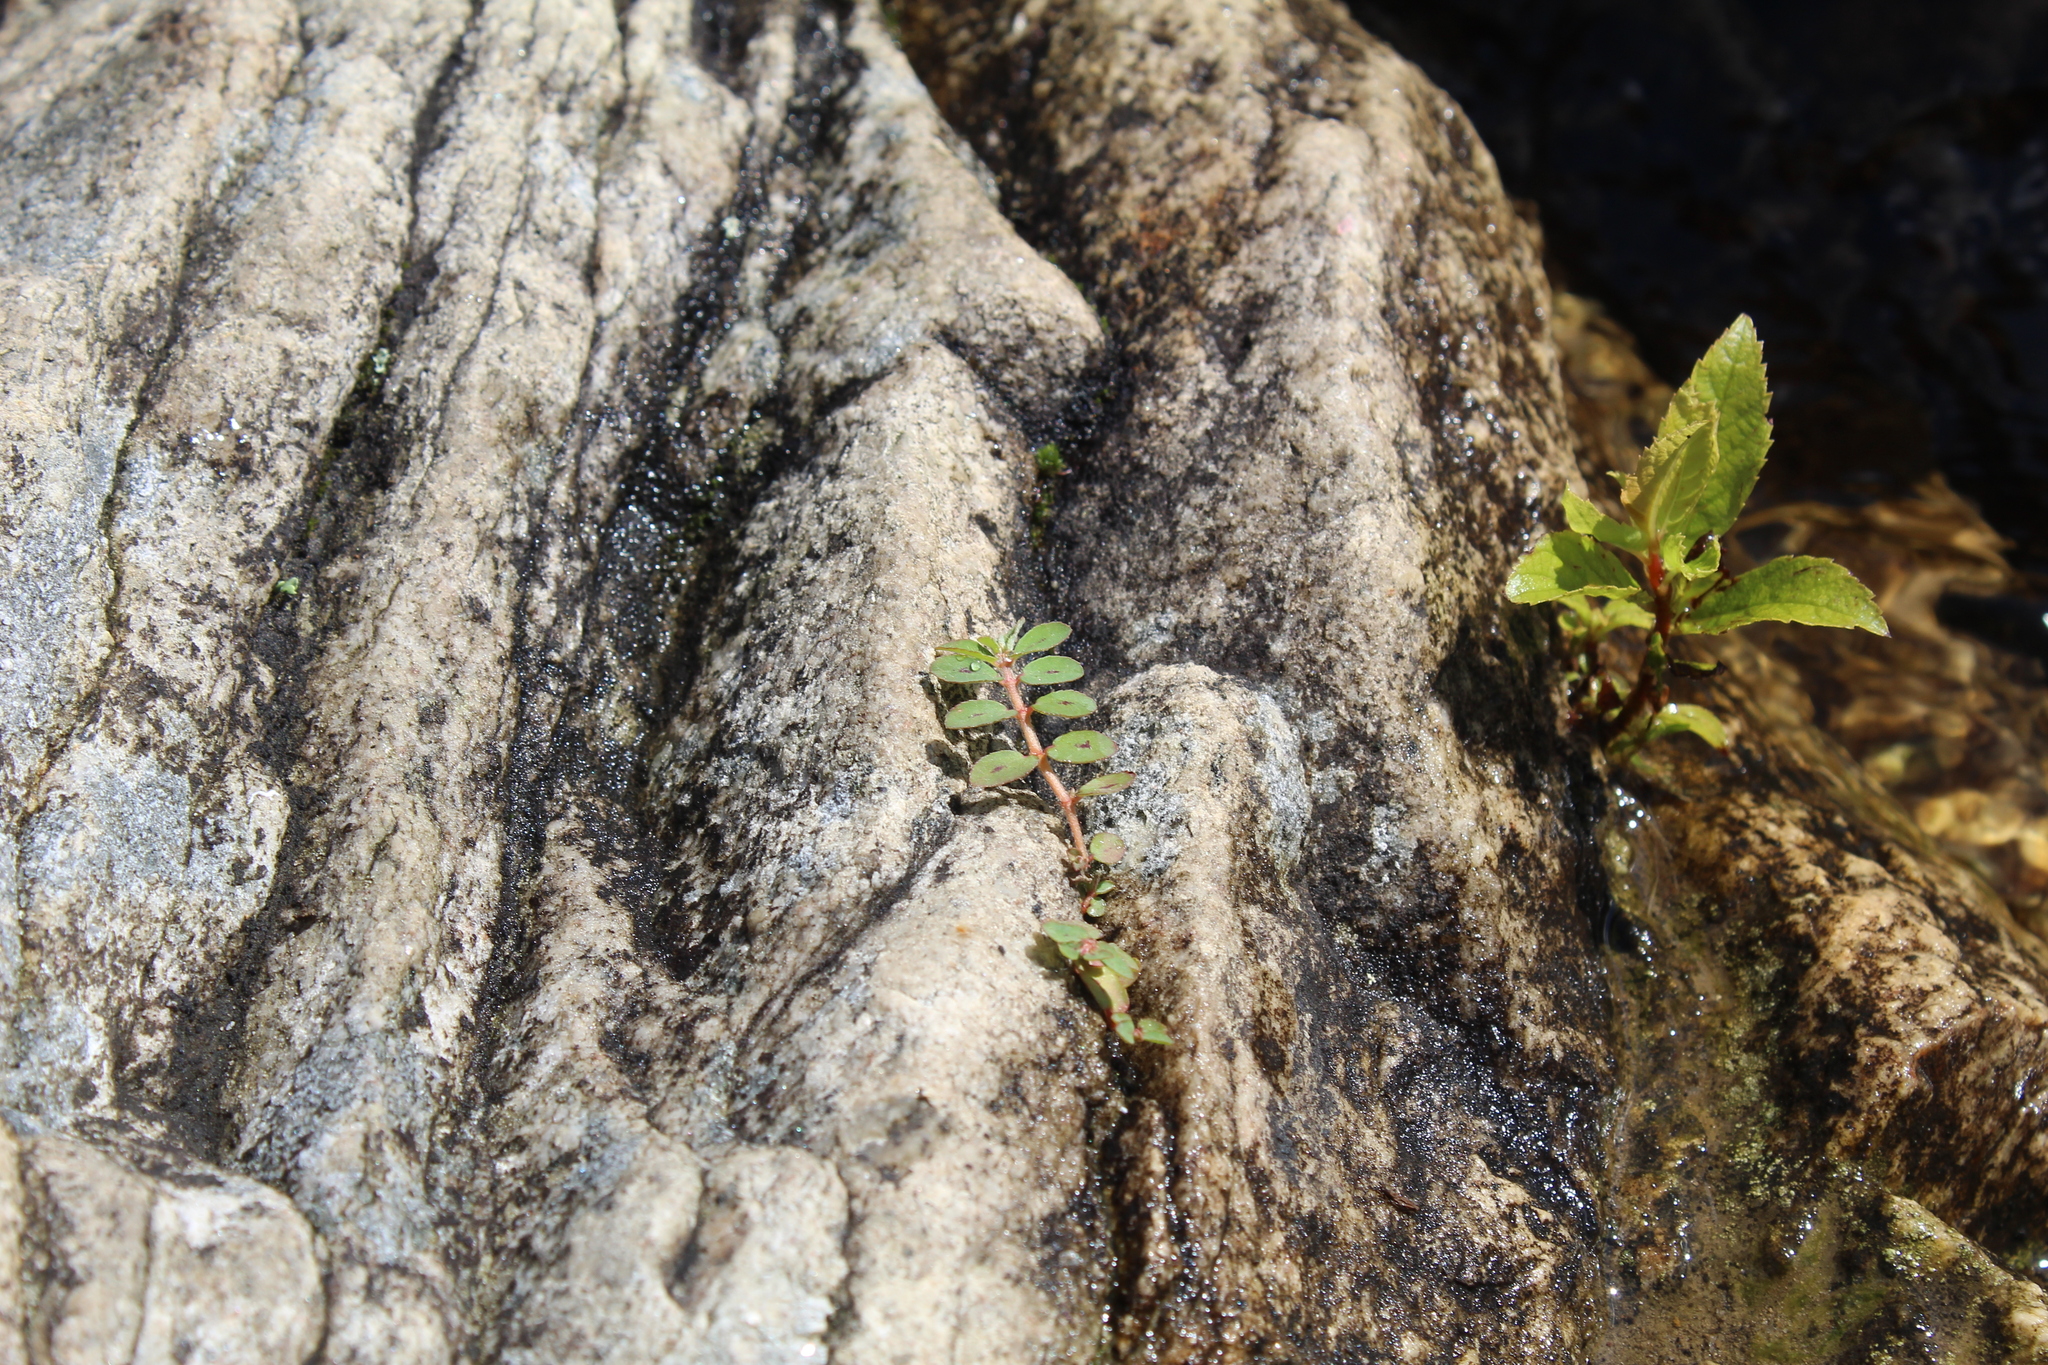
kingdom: Plantae
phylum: Tracheophyta
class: Magnoliopsida
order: Malpighiales
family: Euphorbiaceae
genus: Euphorbia
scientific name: Euphorbia maculata
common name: Spotted spurge
